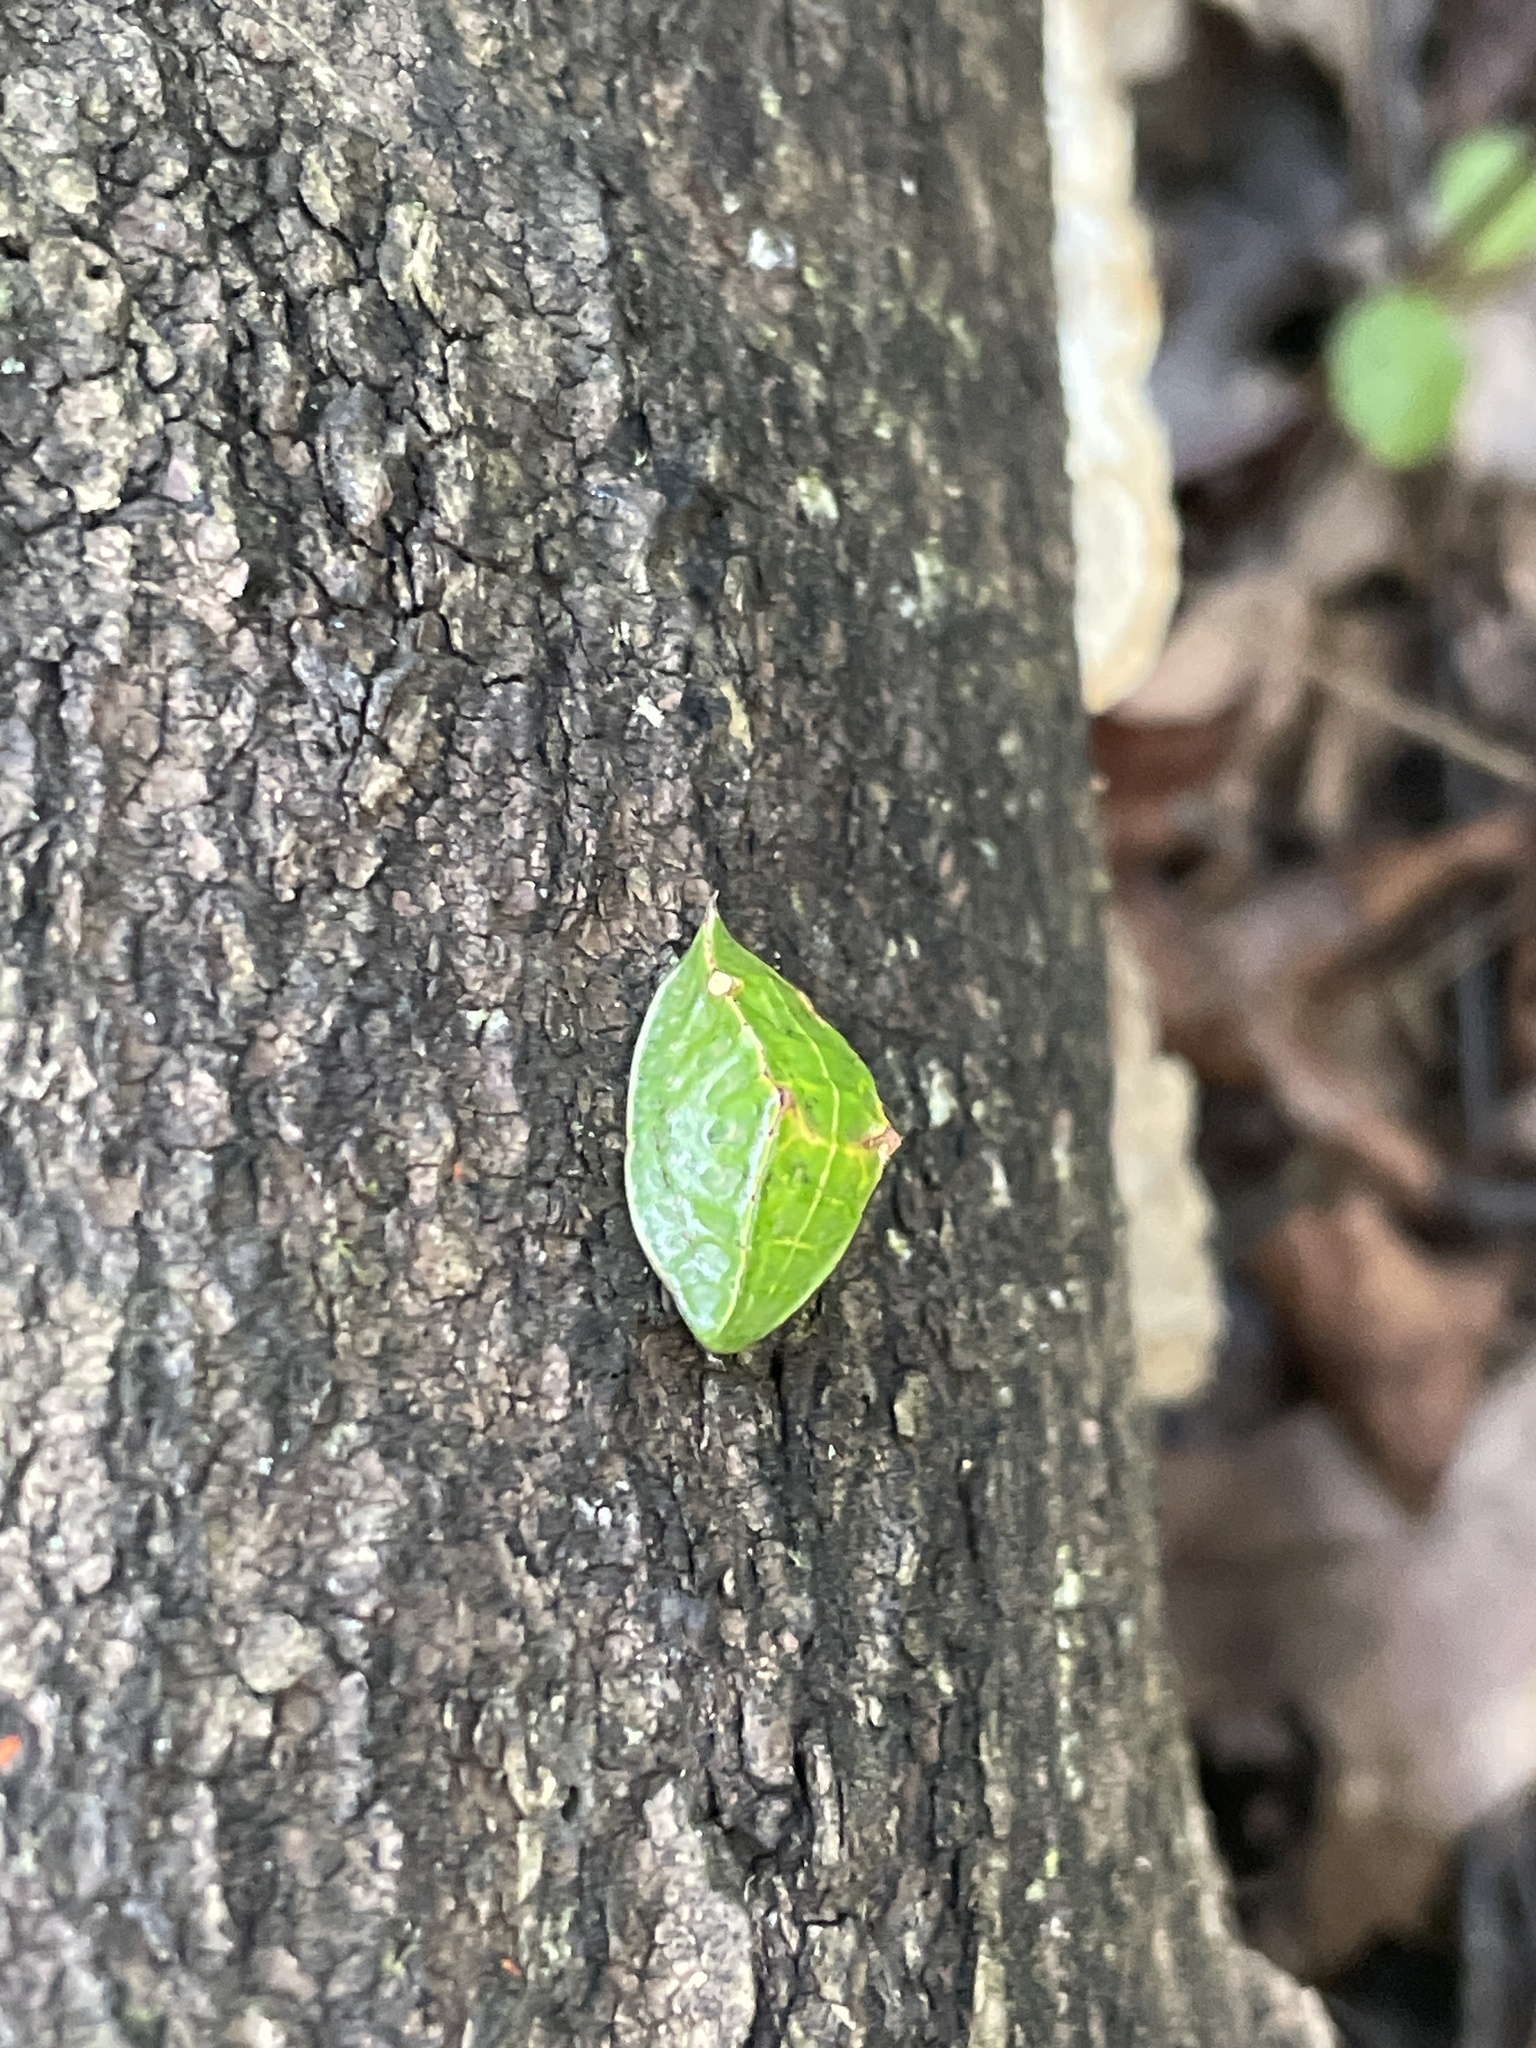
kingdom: Animalia
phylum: Arthropoda
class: Insecta
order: Lepidoptera
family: Limacodidae
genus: Prolimacodes
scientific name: Prolimacodes badia
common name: Skiff moth
